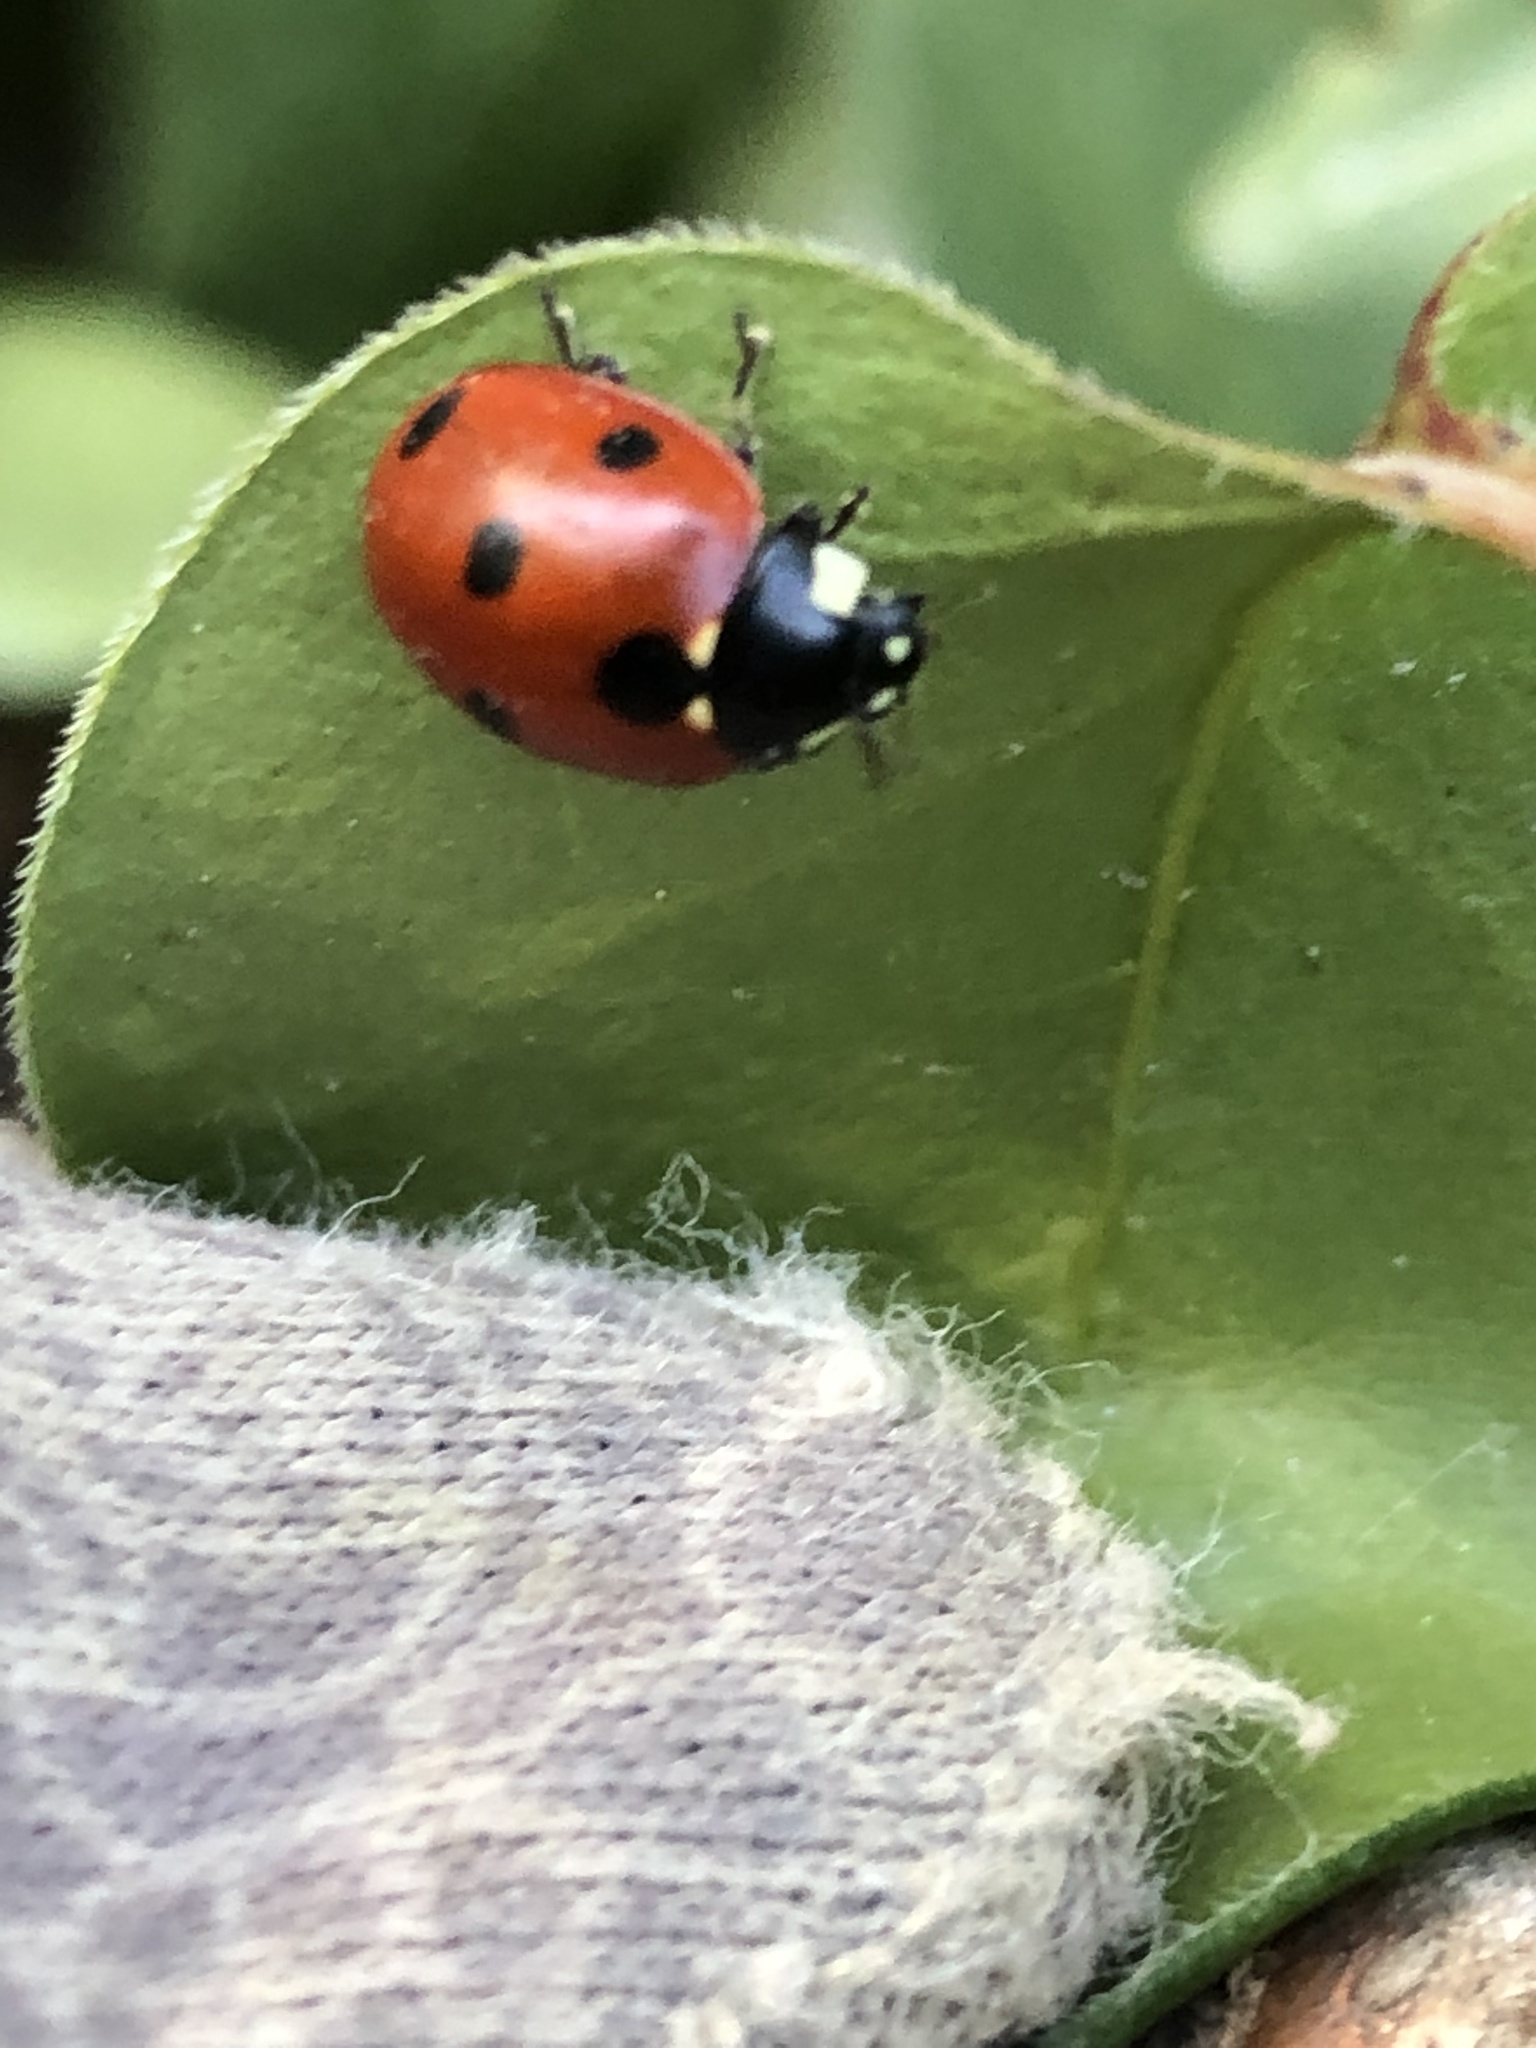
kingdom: Animalia
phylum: Arthropoda
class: Insecta
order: Coleoptera
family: Coccinellidae
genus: Coccinella
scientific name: Coccinella septempunctata
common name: Sevenspotted lady beetle
